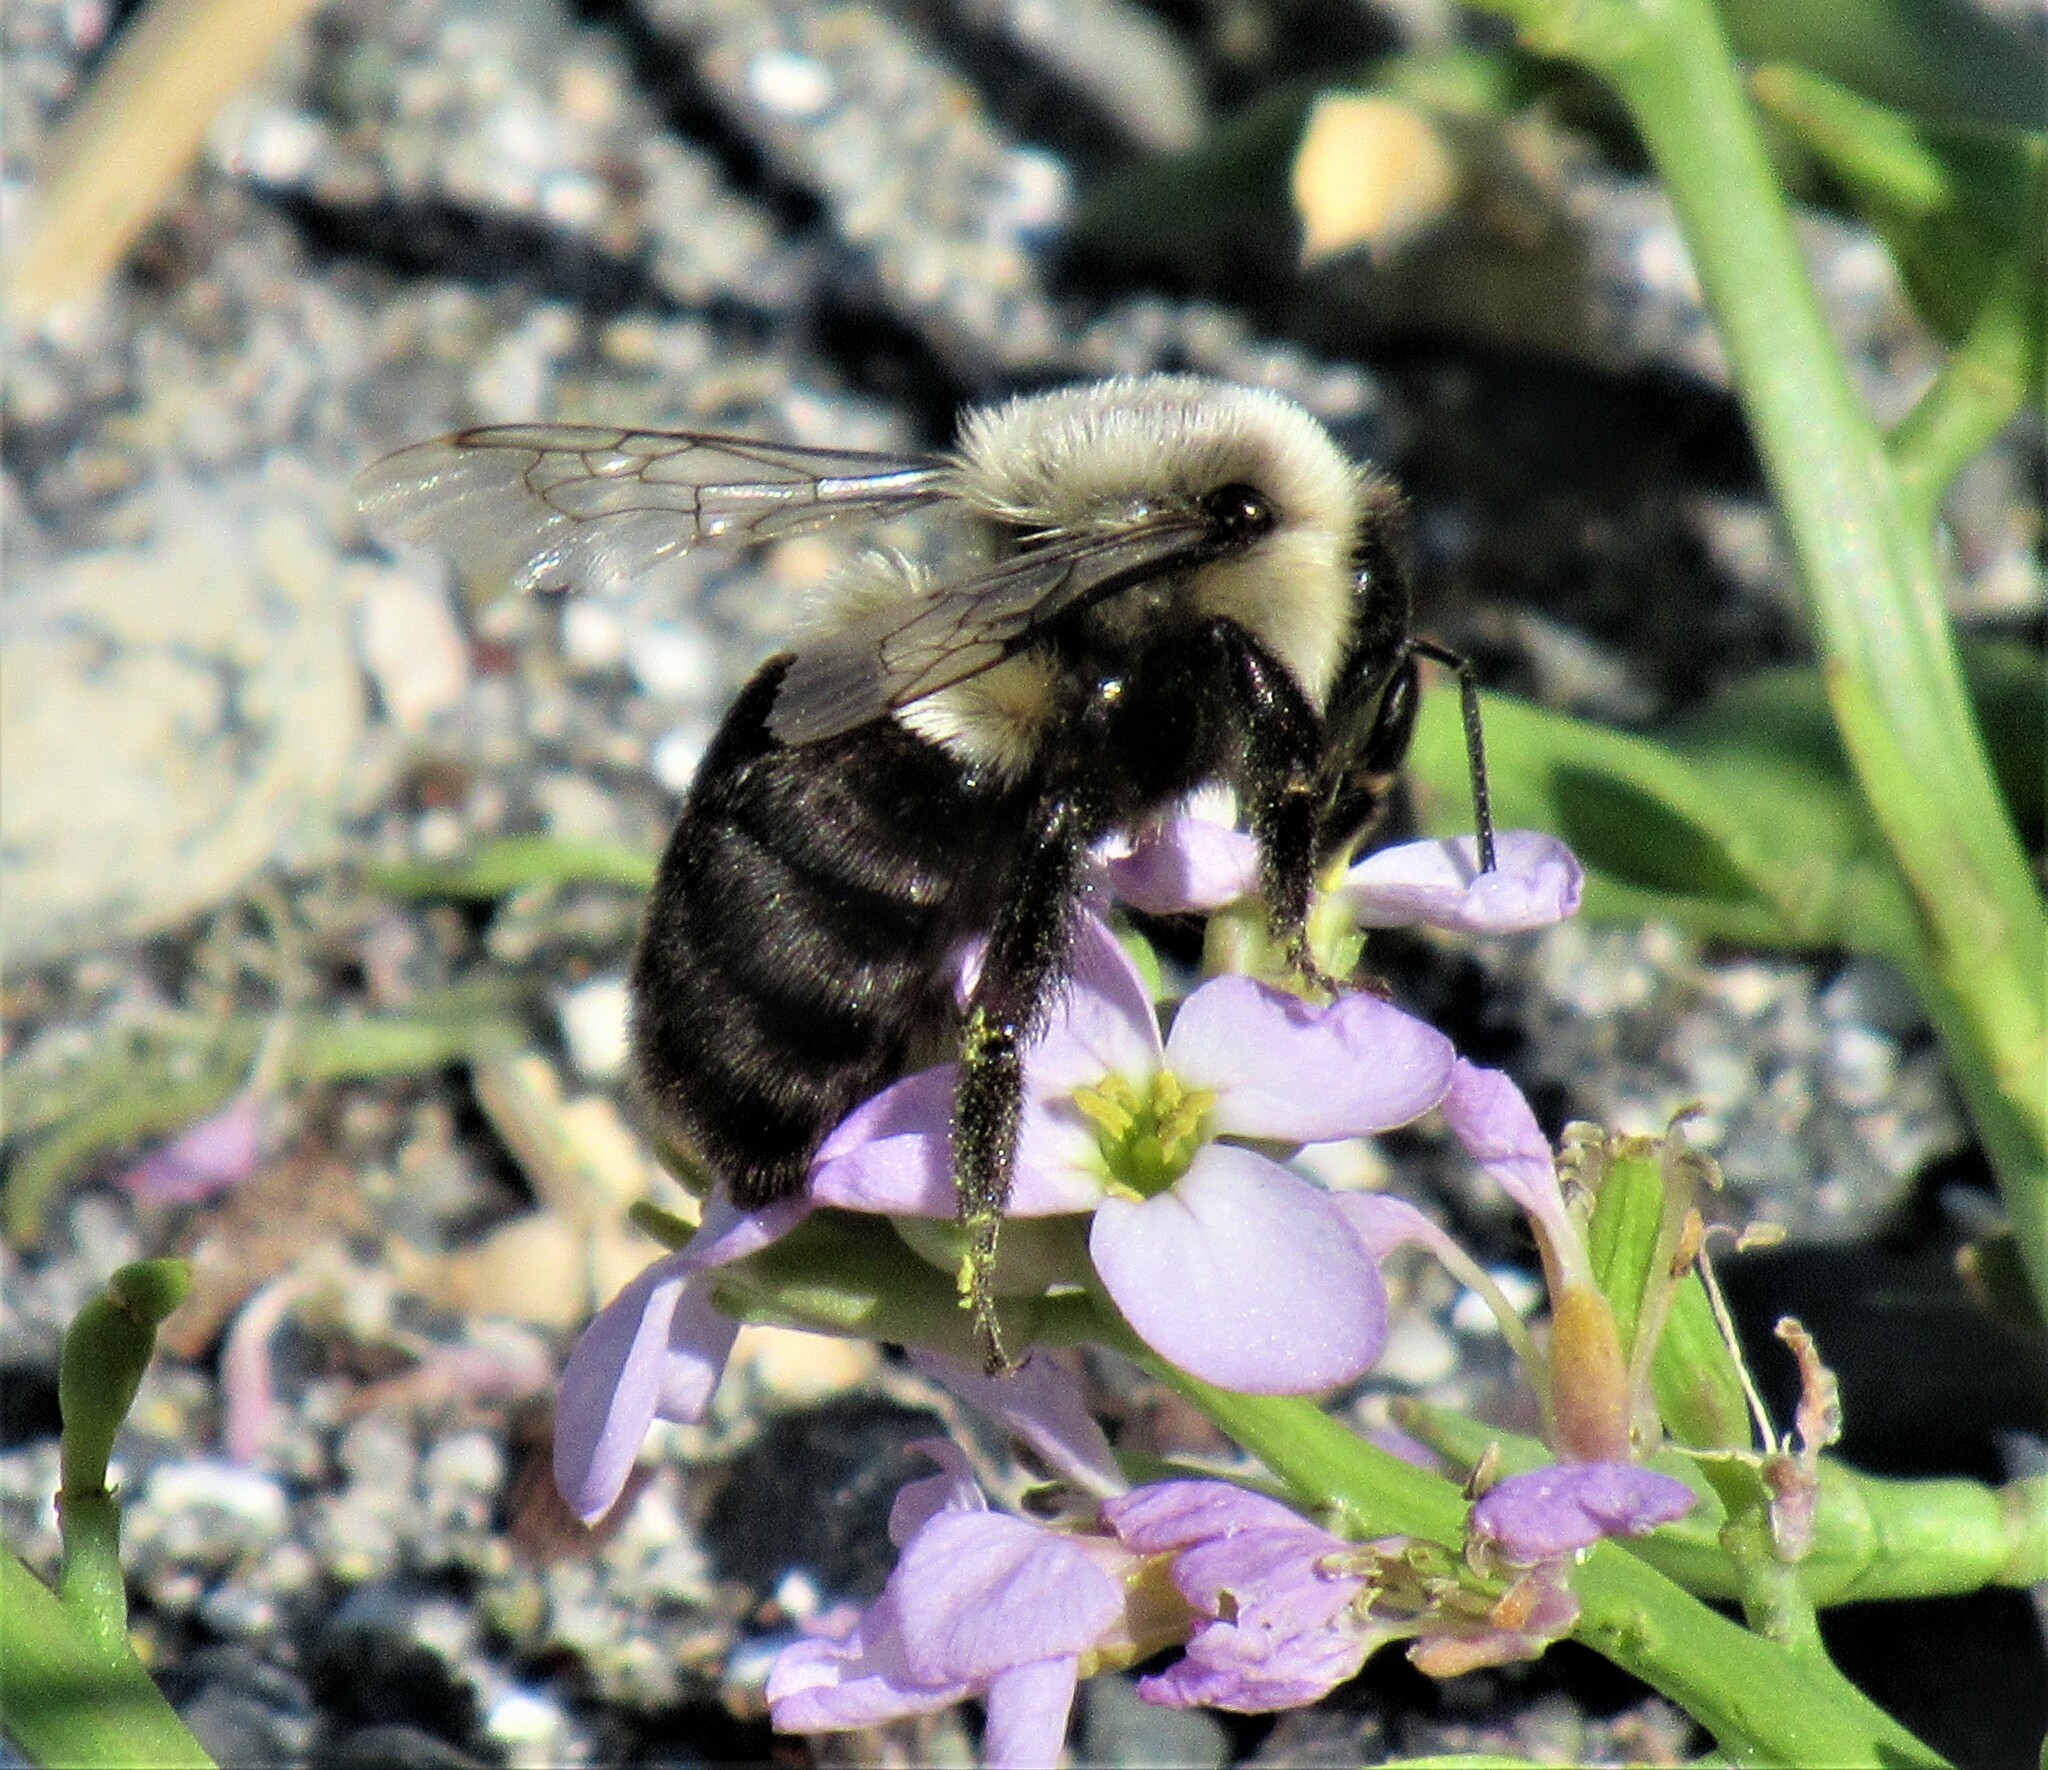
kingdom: Animalia
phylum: Arthropoda
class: Insecta
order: Hymenoptera
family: Apidae
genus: Bombus
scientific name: Bombus impatiens
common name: Common eastern bumble bee
